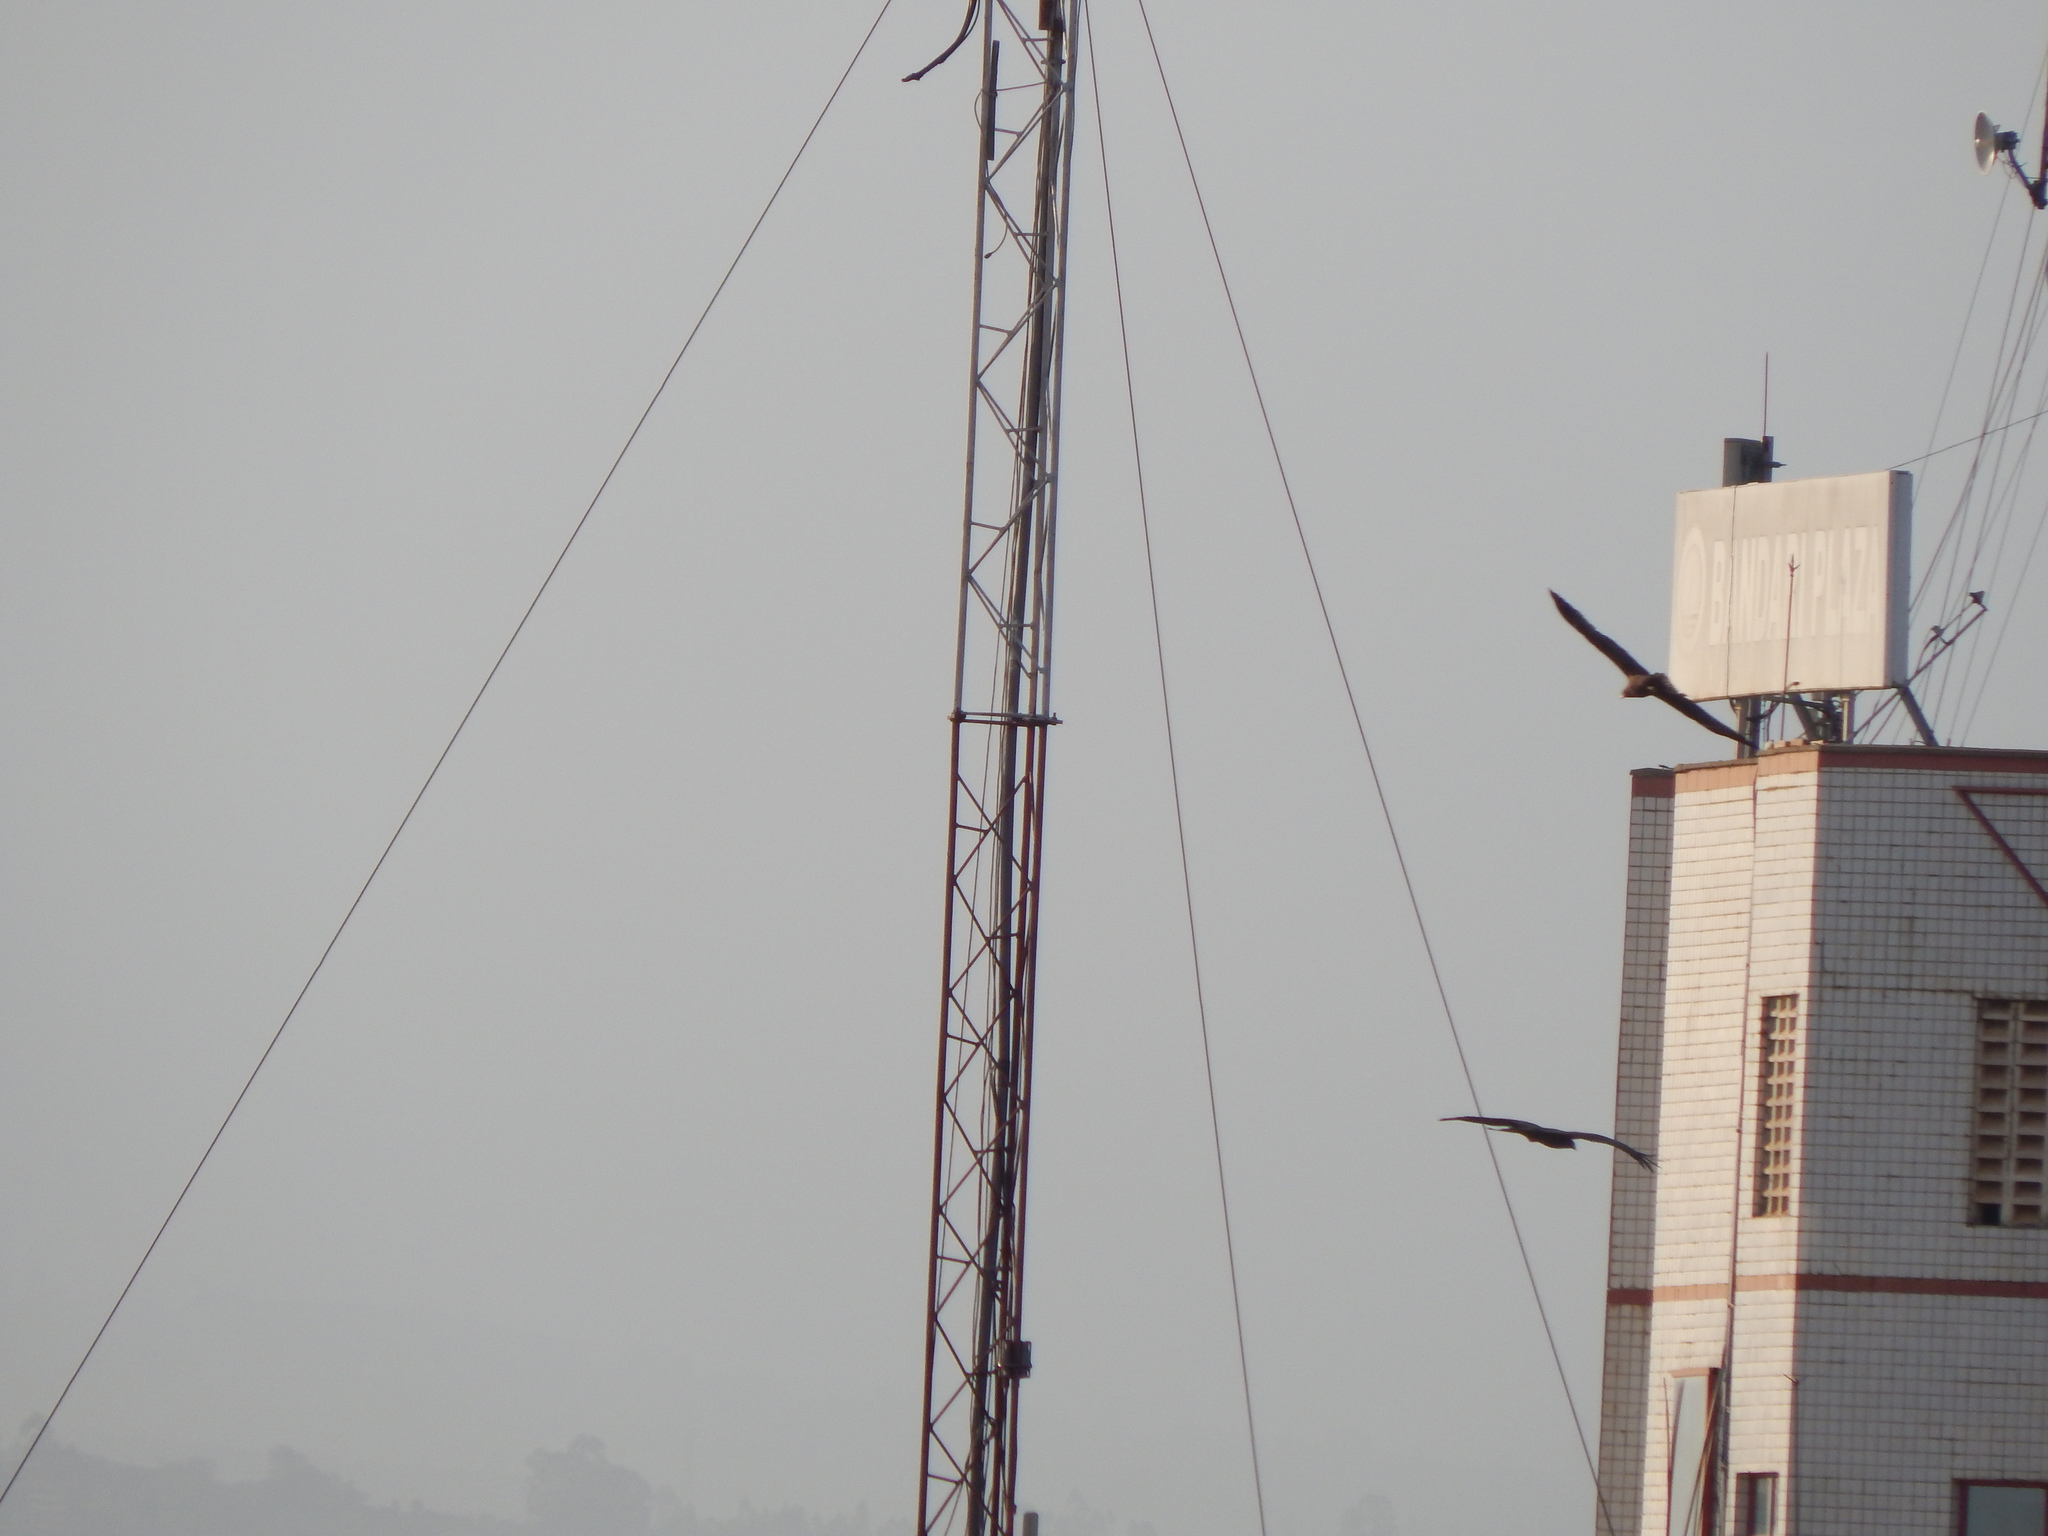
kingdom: Animalia
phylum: Chordata
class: Aves
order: Accipitriformes
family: Accipitridae
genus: Milvus
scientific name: Milvus migrans
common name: Black kite
